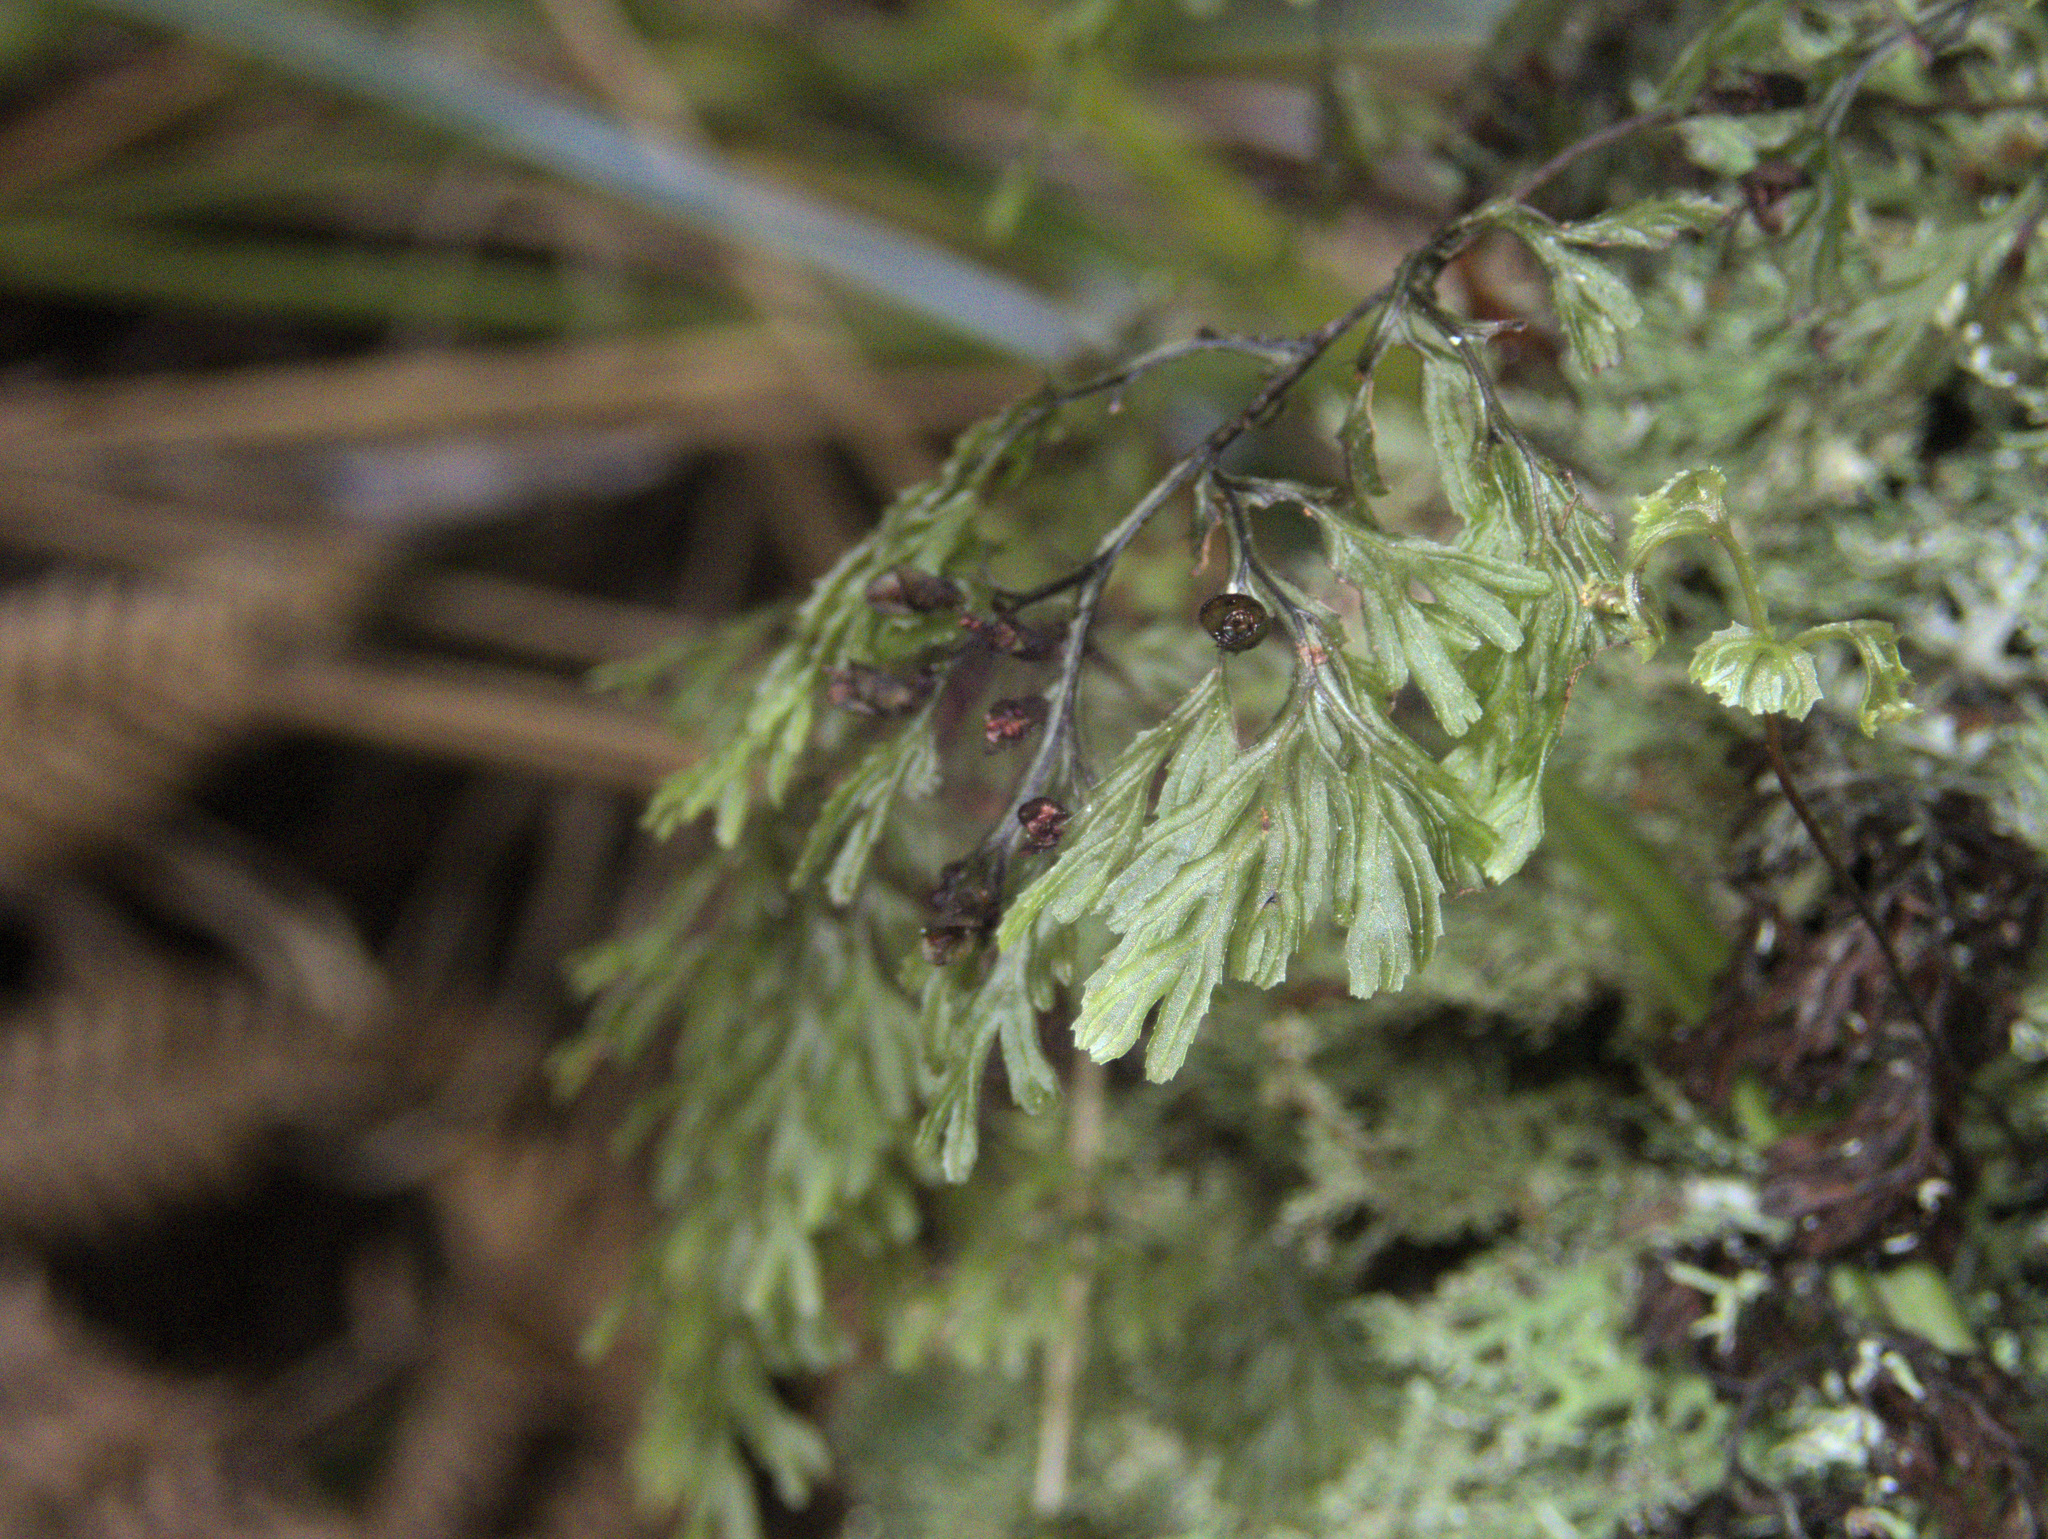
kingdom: Plantae
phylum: Tracheophyta
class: Polypodiopsida
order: Hymenophyllales
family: Hymenophyllaceae
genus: Hymenophyllum
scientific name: Hymenophyllum multifidum
